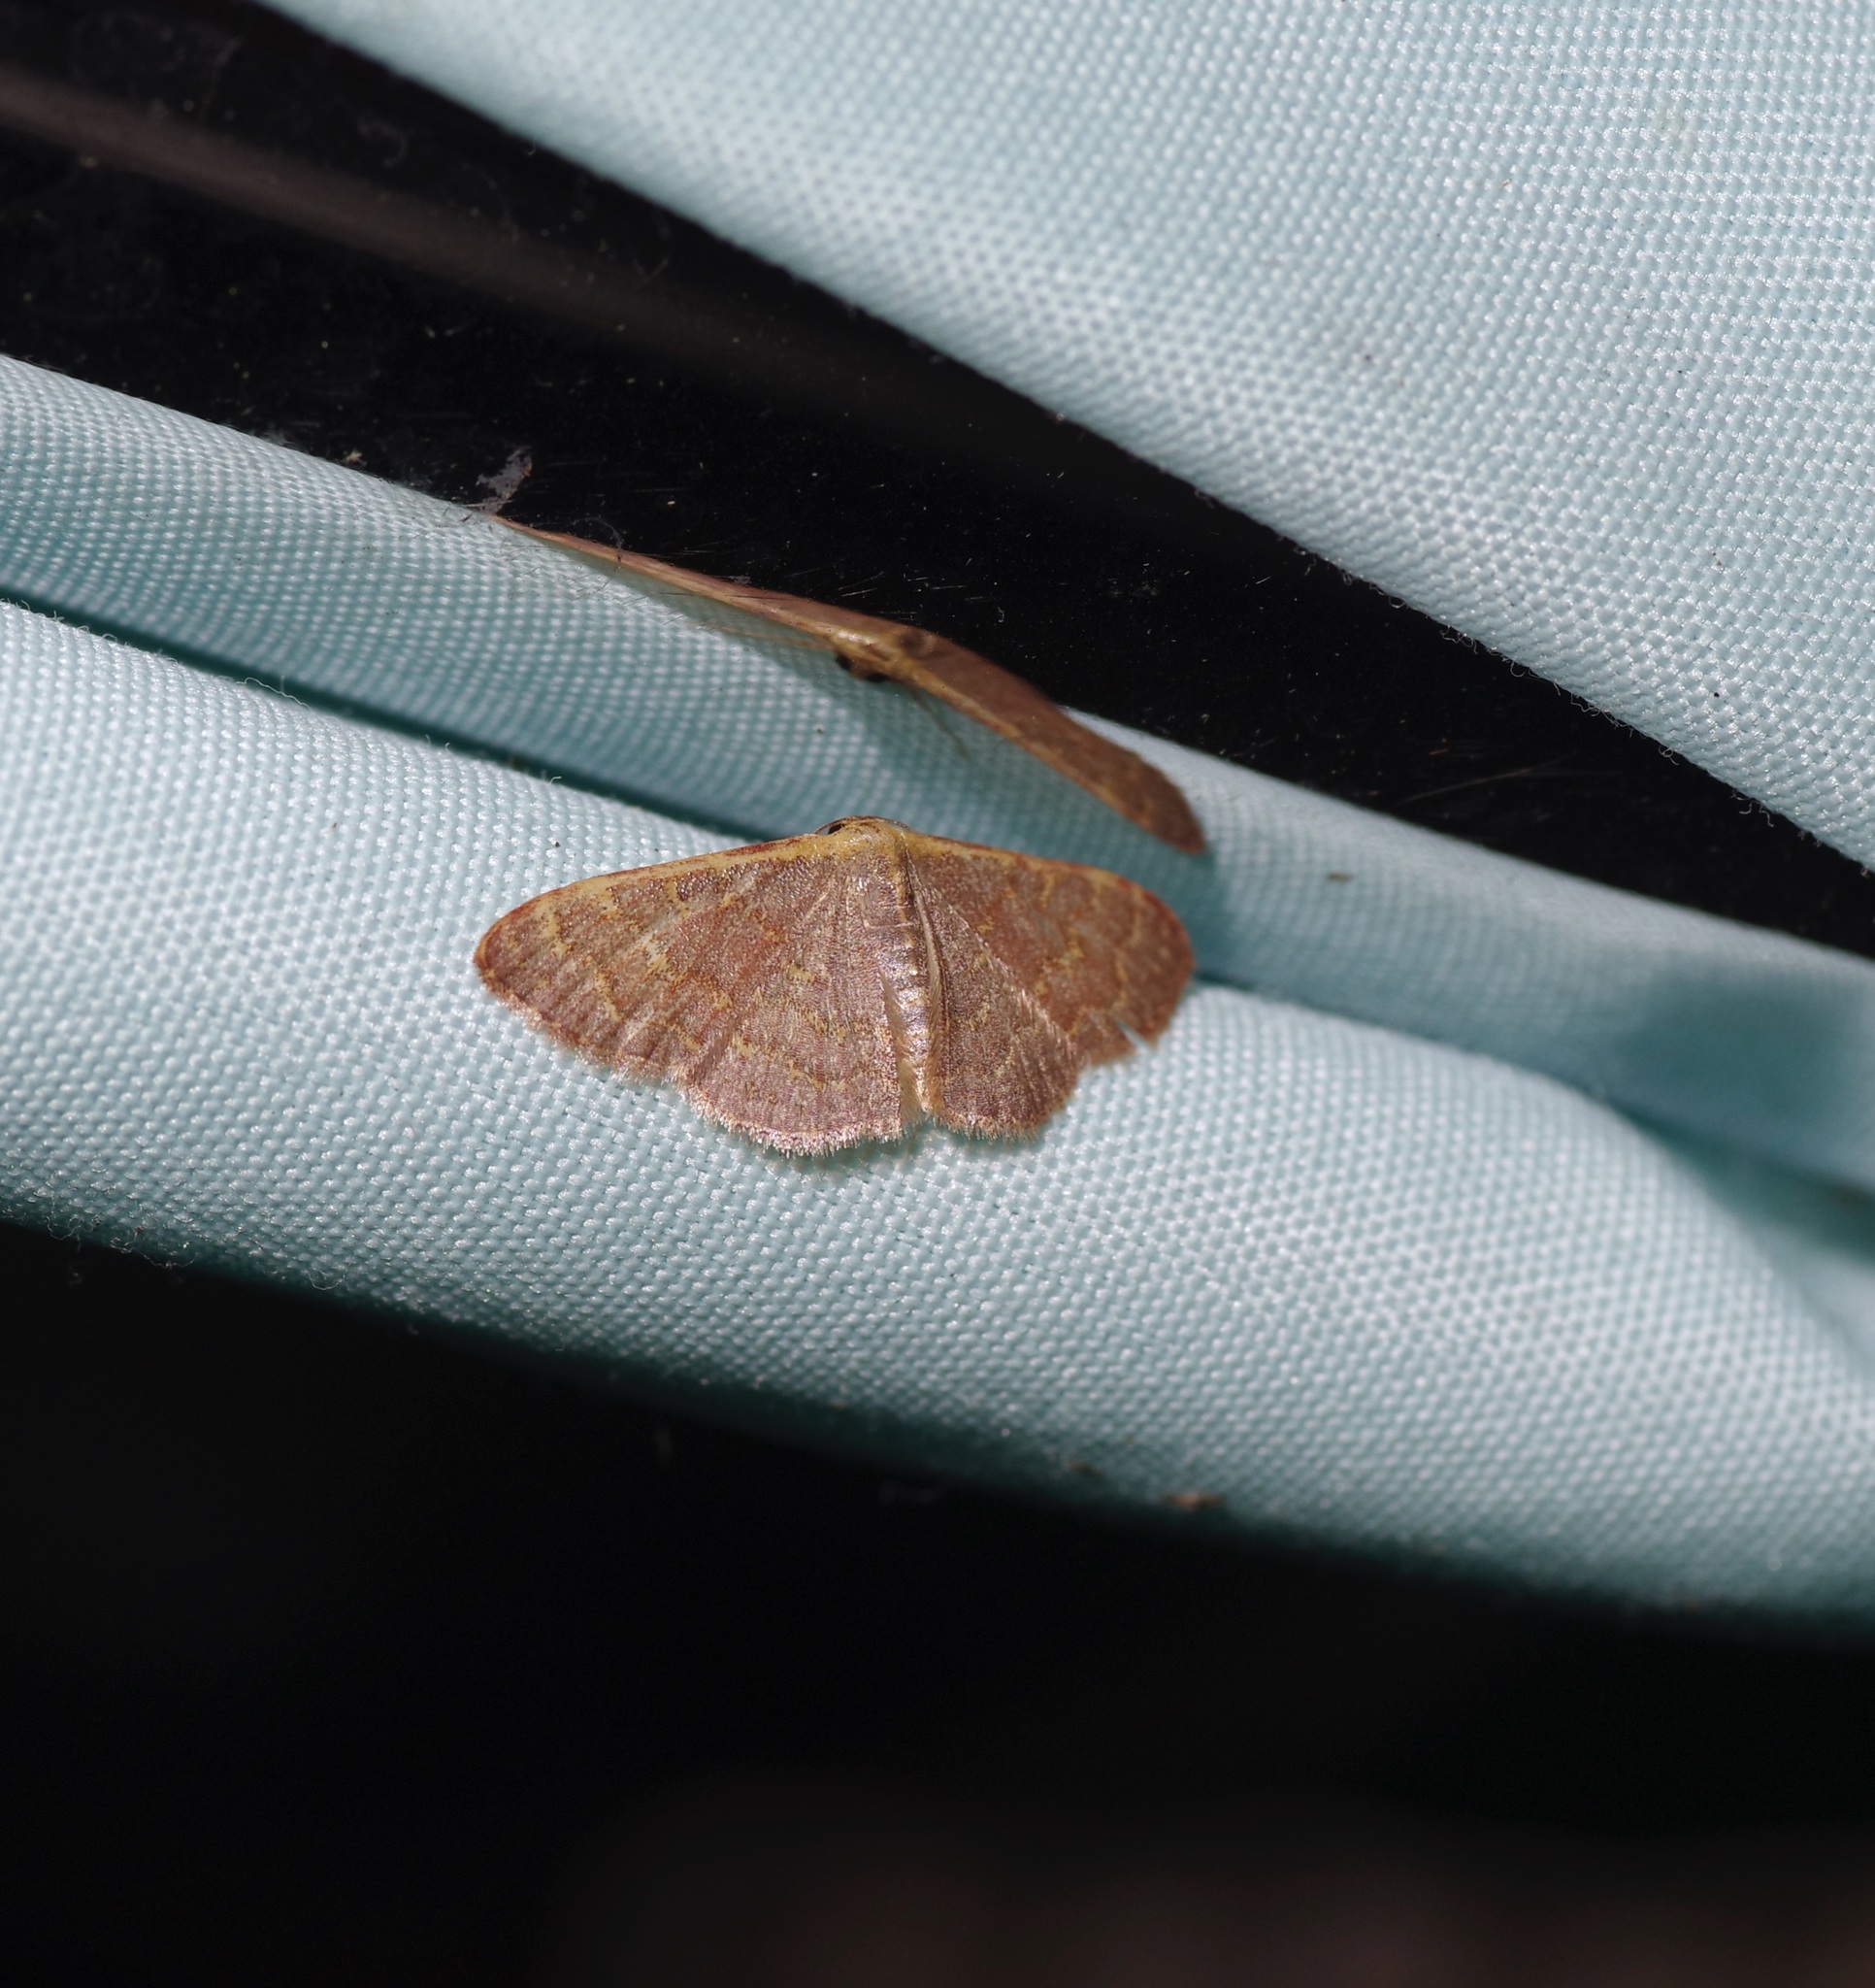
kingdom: Animalia
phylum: Arthropoda
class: Insecta
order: Lepidoptera
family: Geometridae
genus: Leptostales
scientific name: Leptostales pannaria
